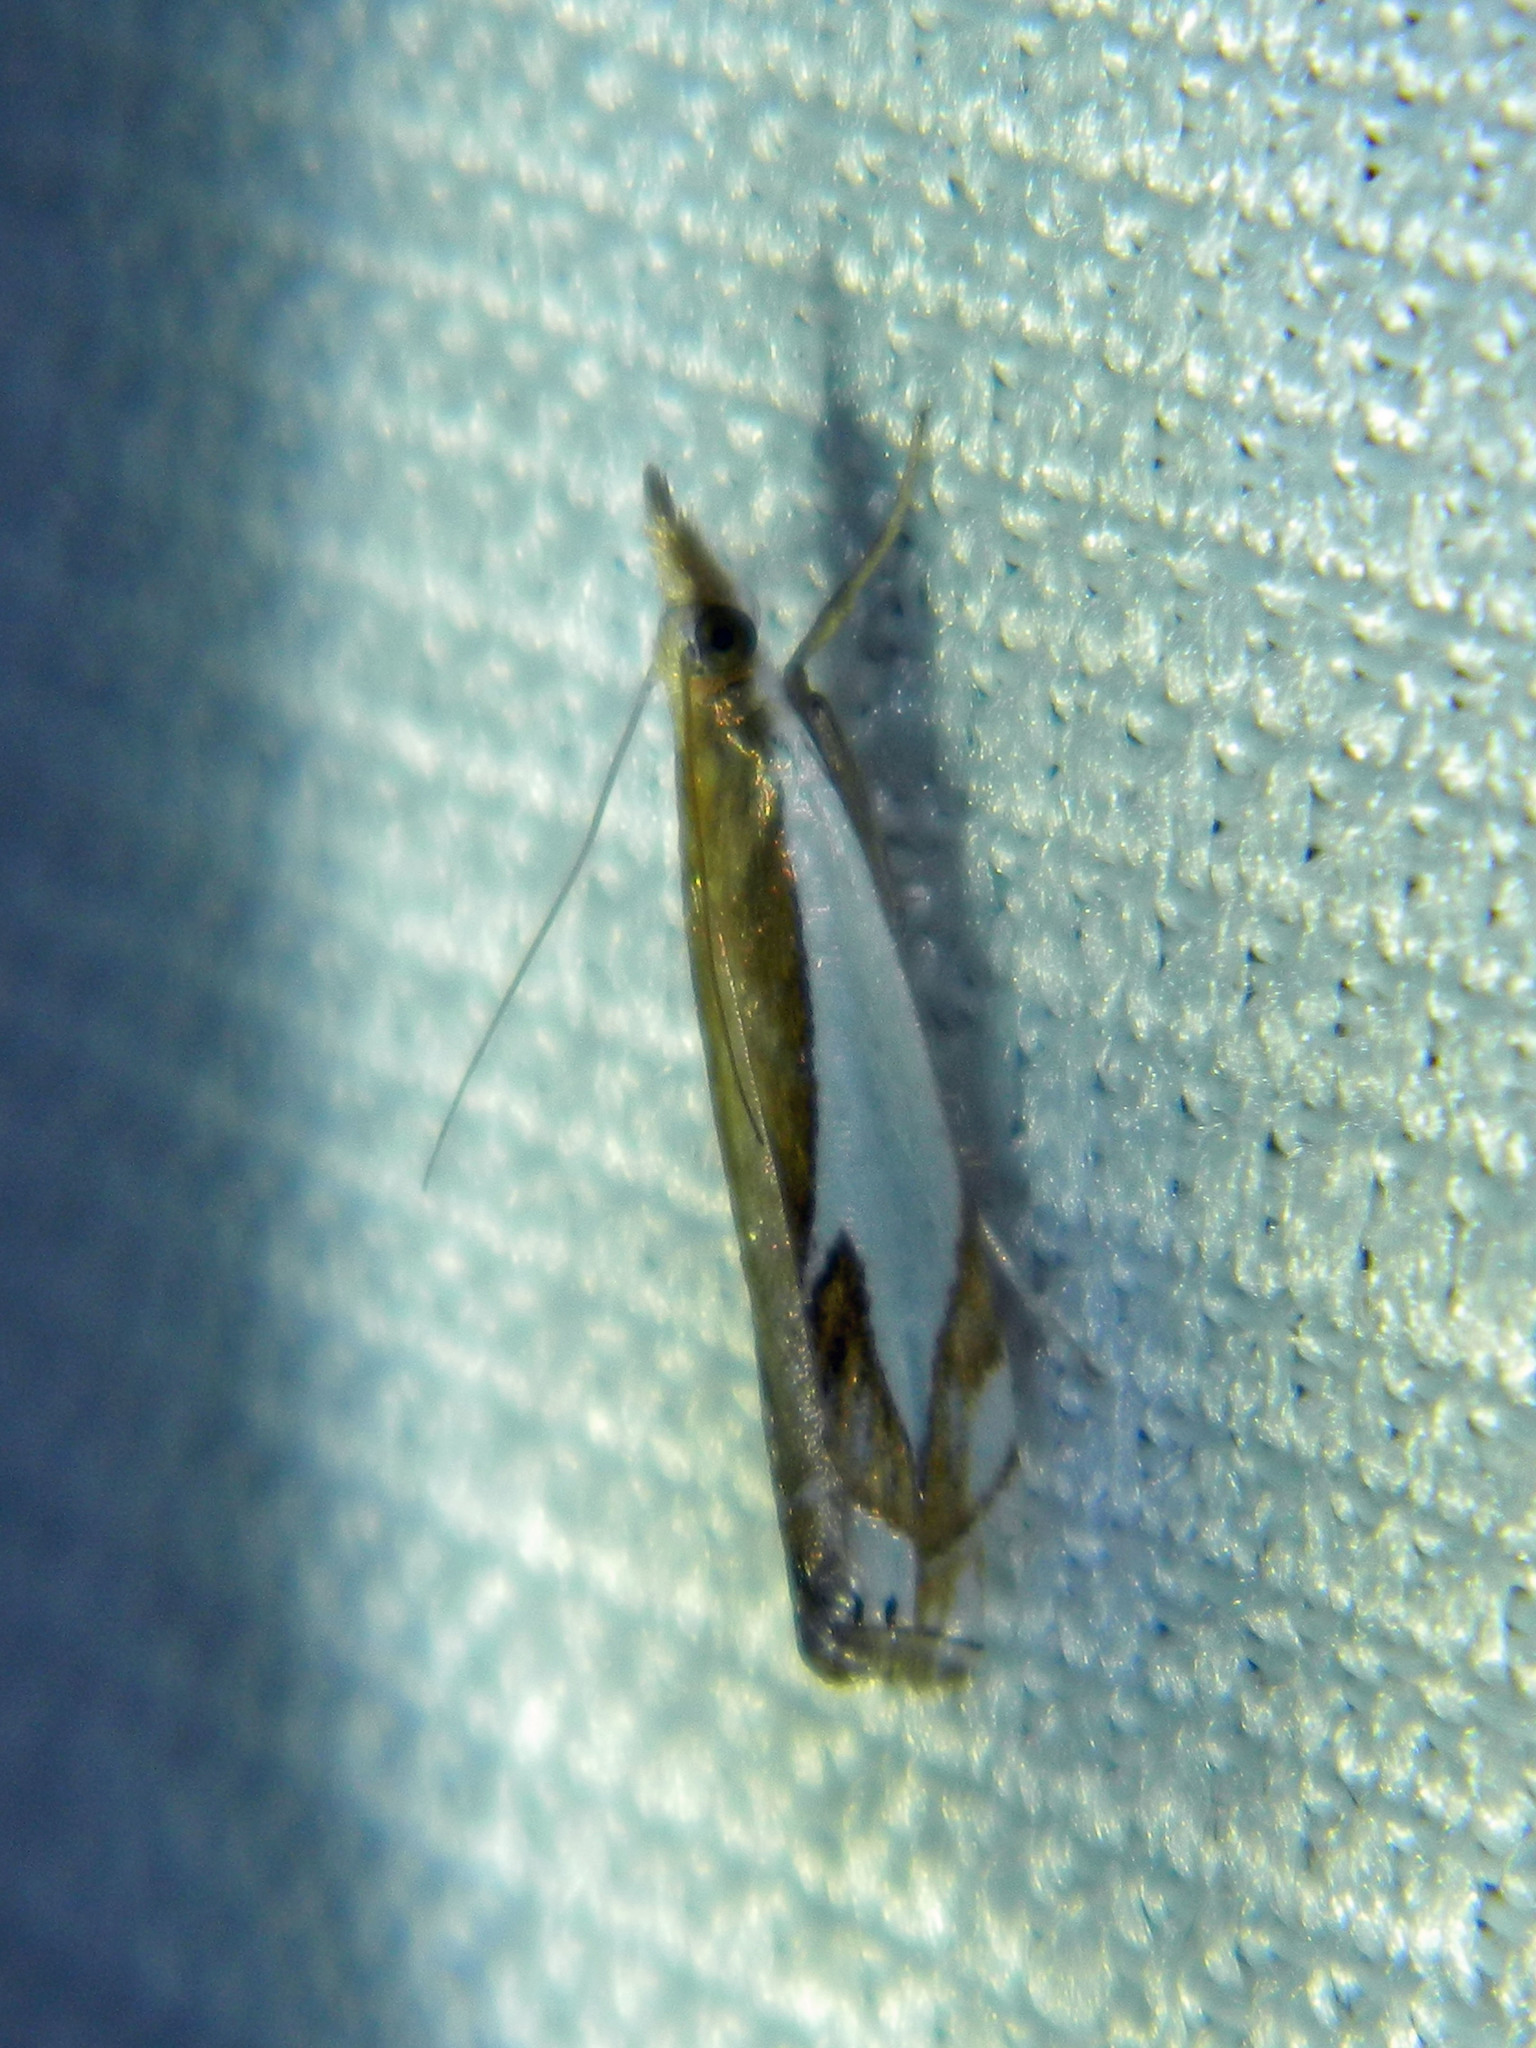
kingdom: Animalia
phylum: Arthropoda
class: Insecta
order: Lepidoptera
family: Crambidae
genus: Crambus
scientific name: Crambus bidens
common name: Forked grass-veneer
